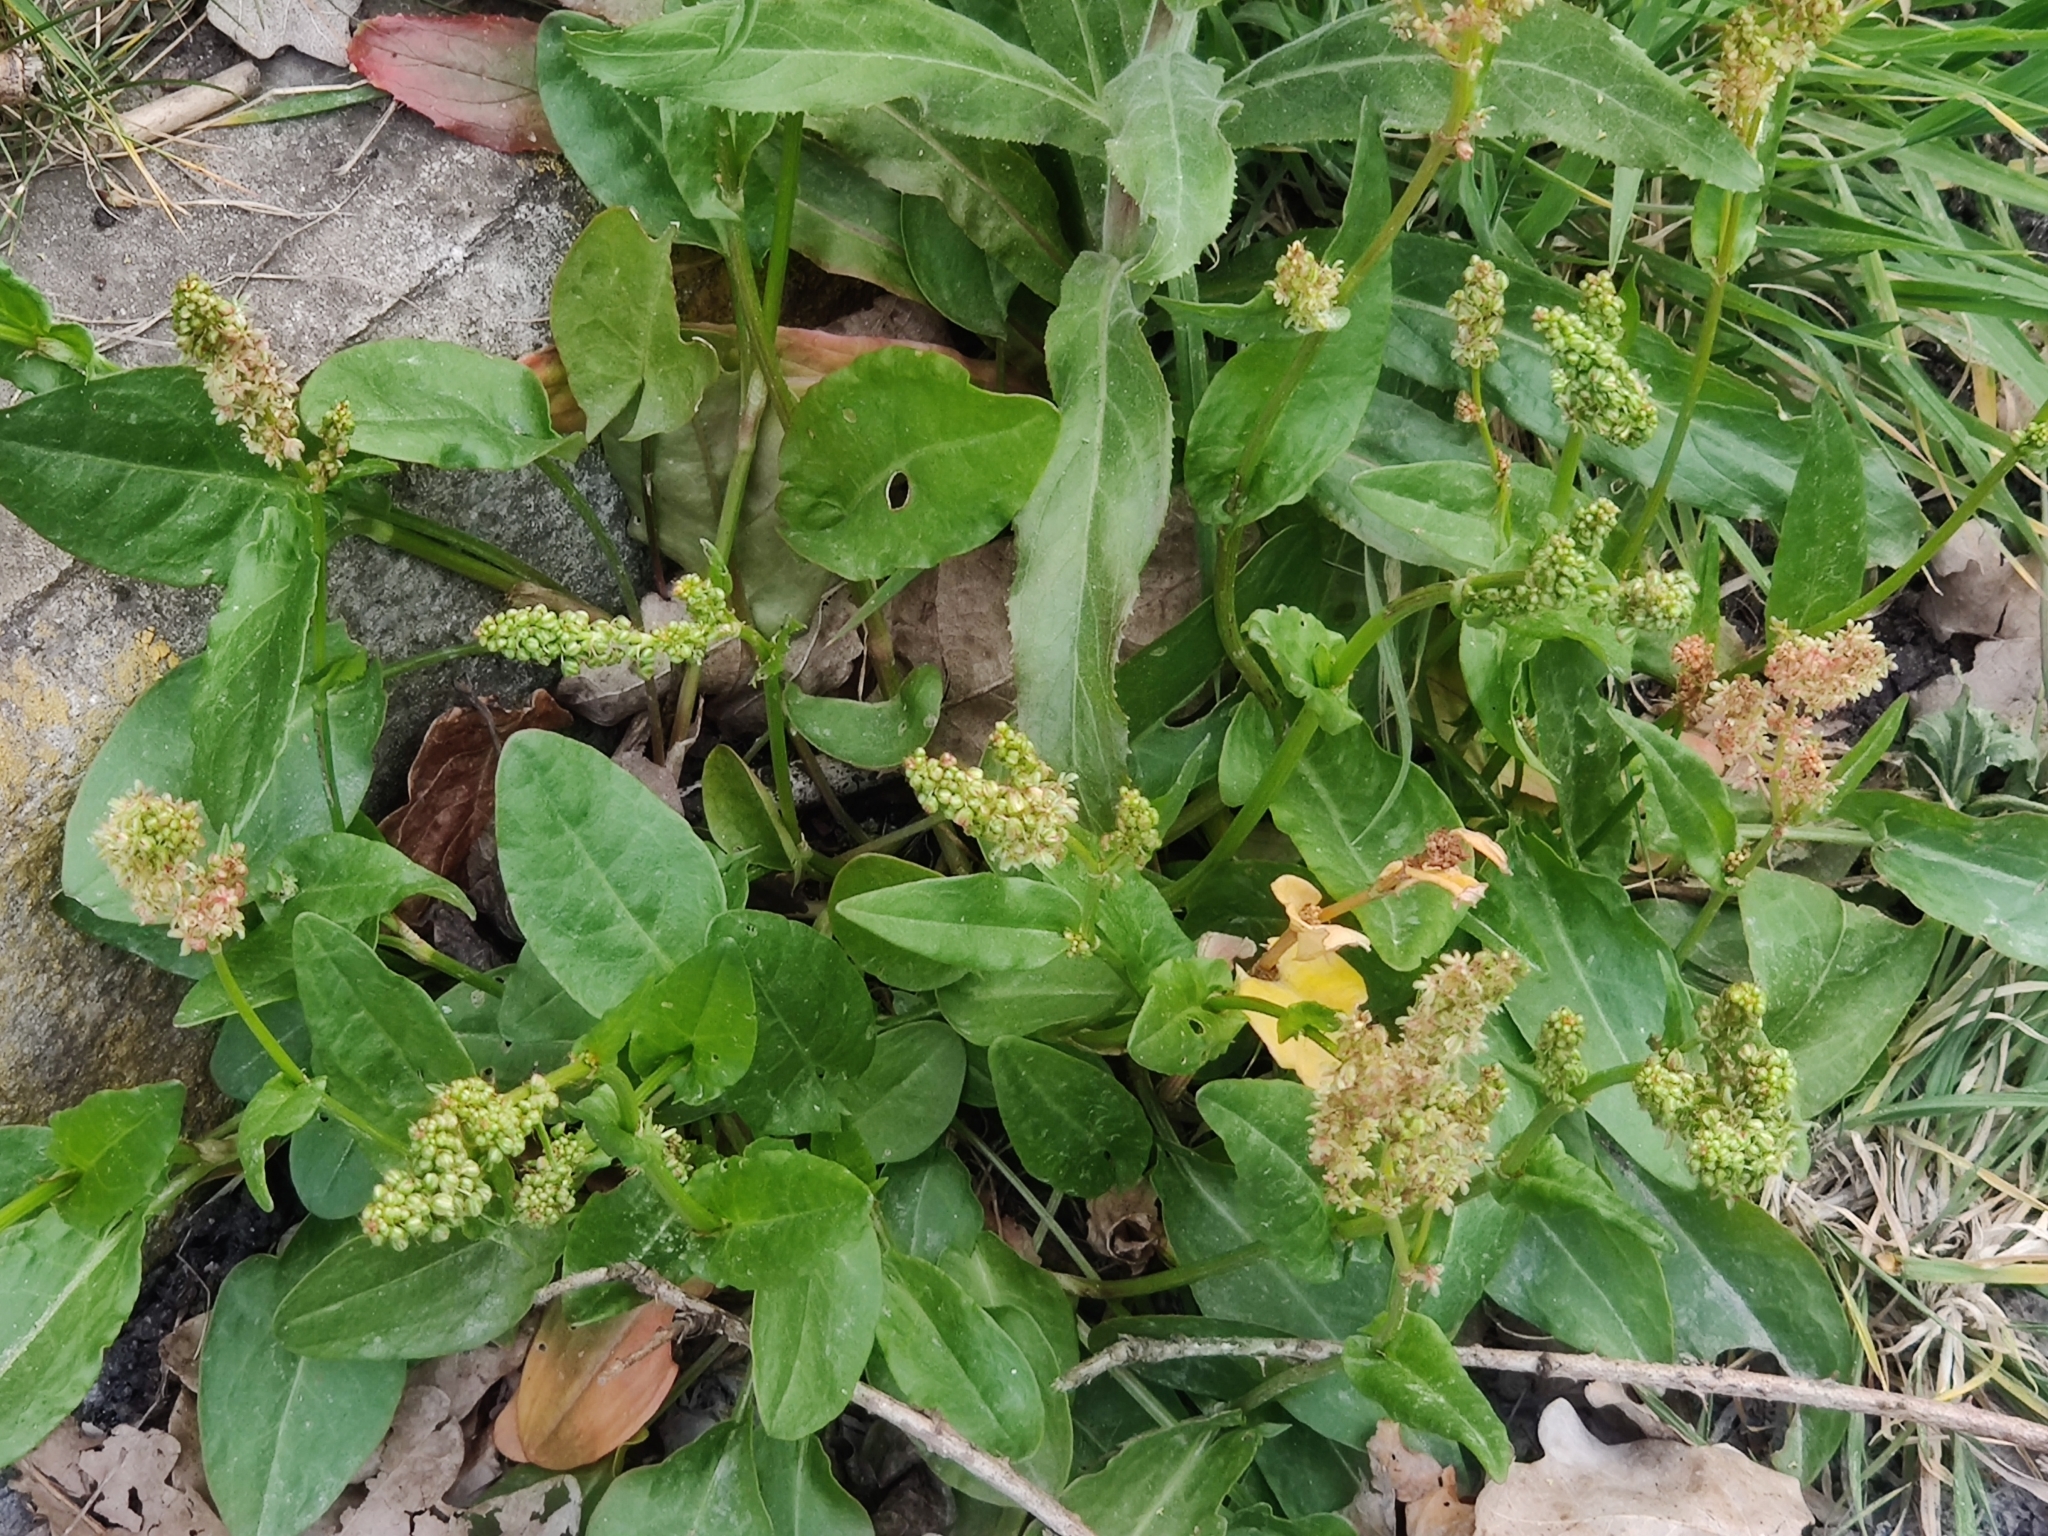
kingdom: Plantae
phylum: Tracheophyta
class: Magnoliopsida
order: Caryophyllales
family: Polygonaceae
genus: Rumex
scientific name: Rumex acetosa
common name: Garden sorrel
